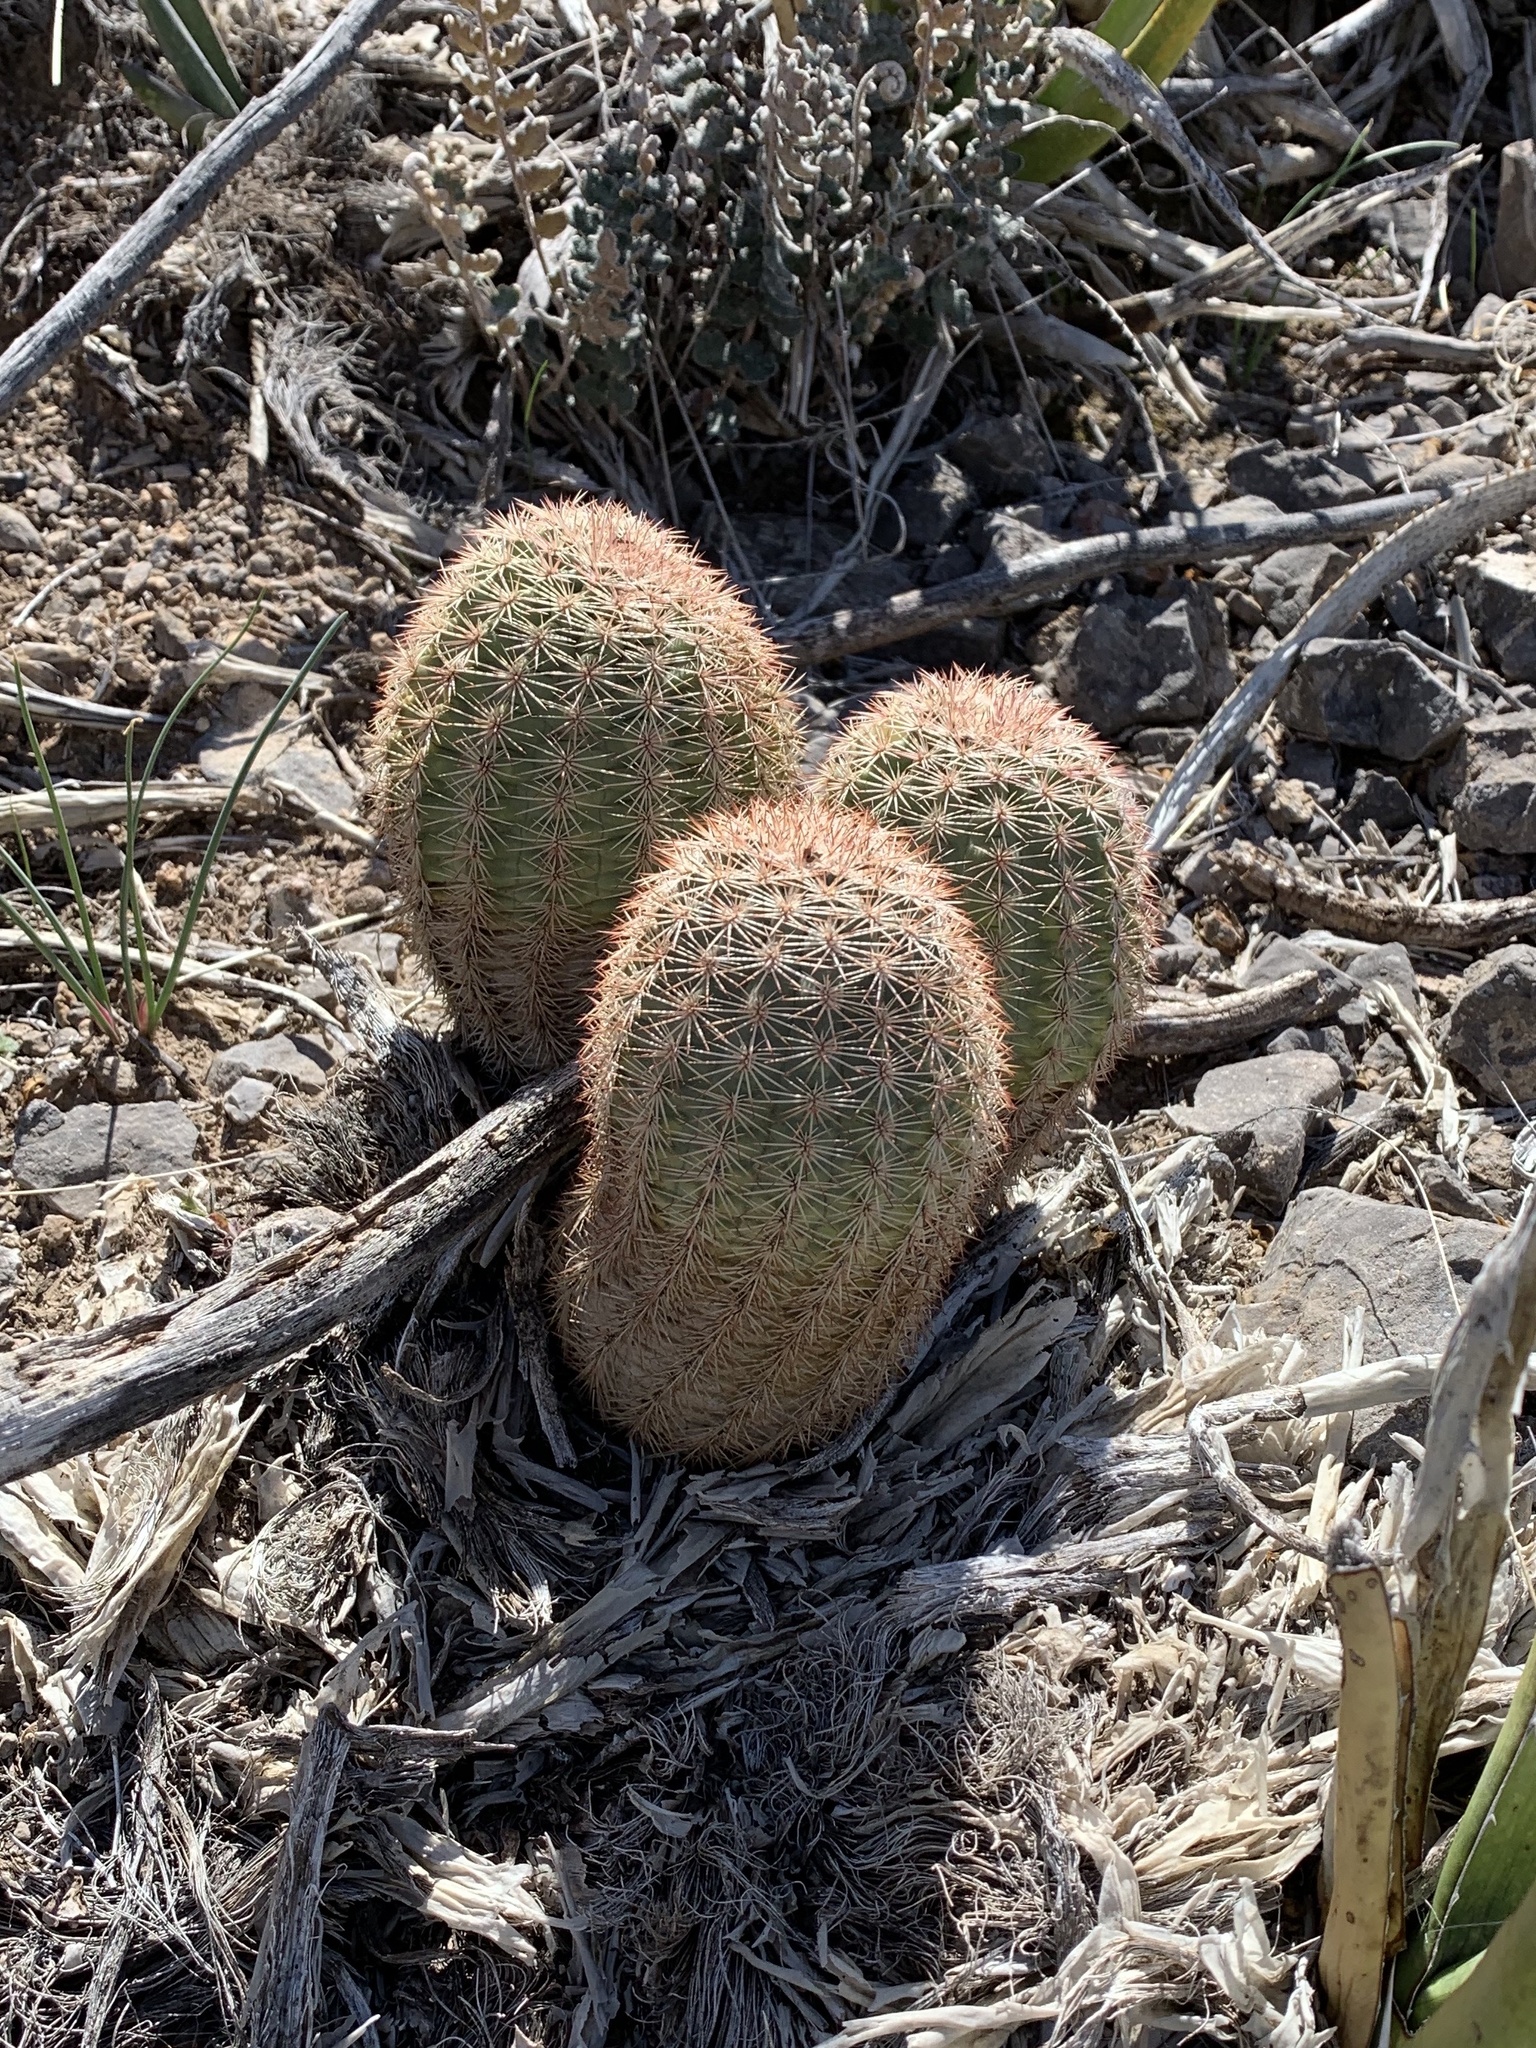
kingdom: Plantae
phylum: Tracheophyta
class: Magnoliopsida
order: Caryophyllales
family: Cactaceae
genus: Echinocereus
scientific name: Echinocereus dasyacanthus
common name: Spiny hedgehog cactus
